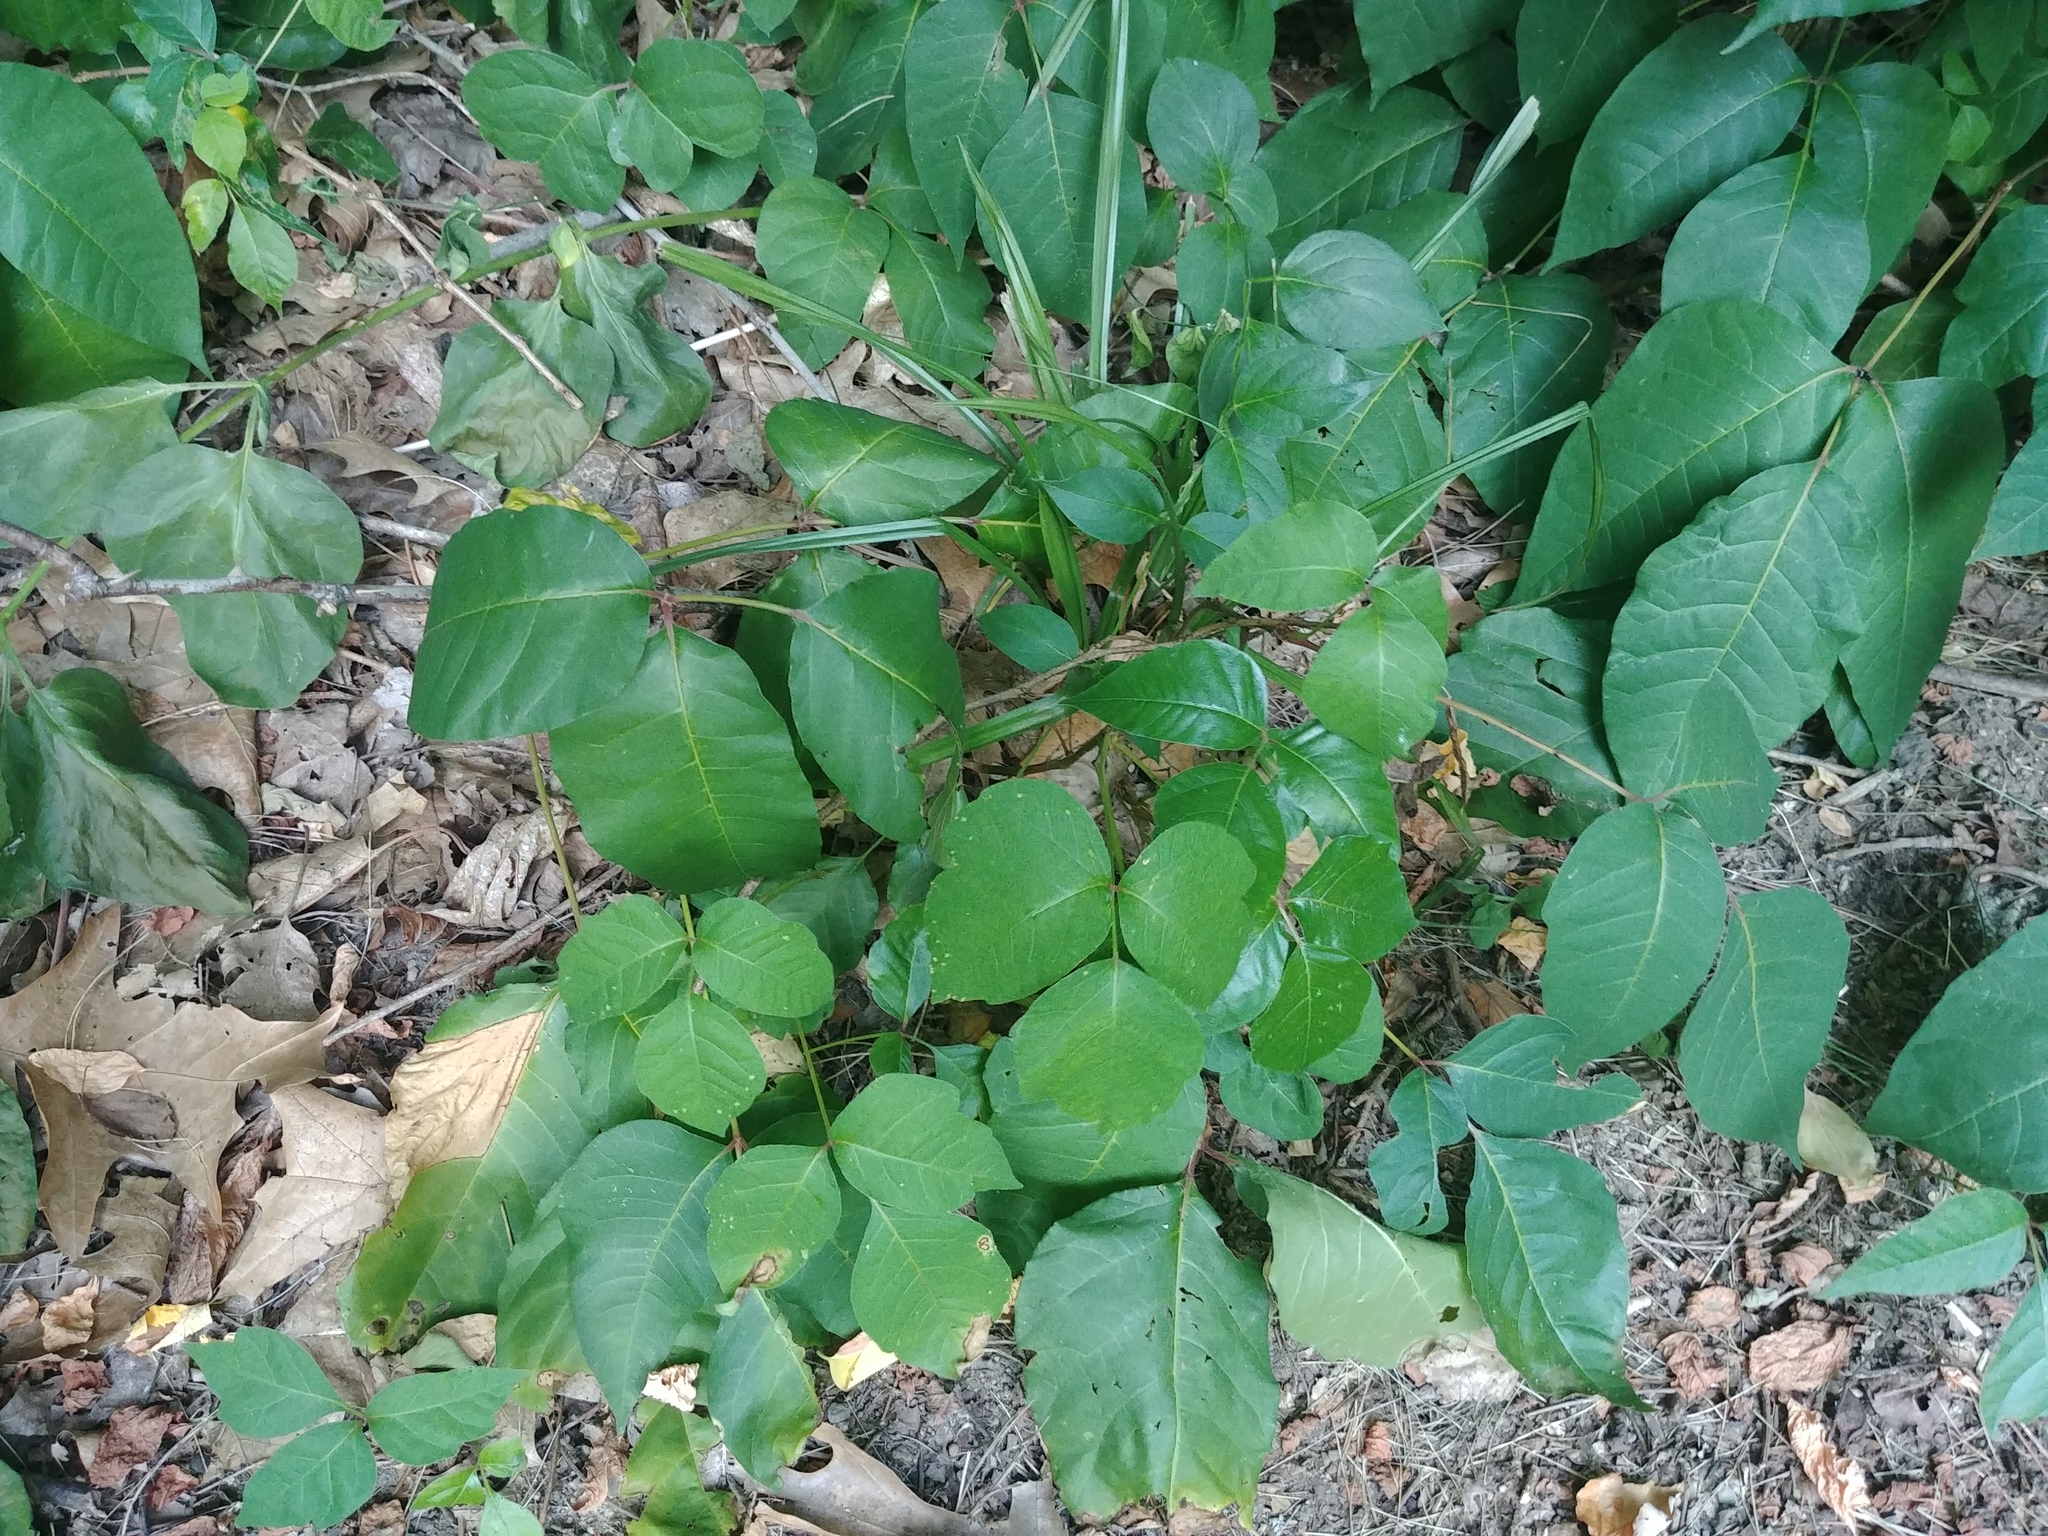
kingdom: Plantae
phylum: Tracheophyta
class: Magnoliopsida
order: Sapindales
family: Anacardiaceae
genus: Toxicodendron
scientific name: Toxicodendron radicans
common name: Poison ivy
